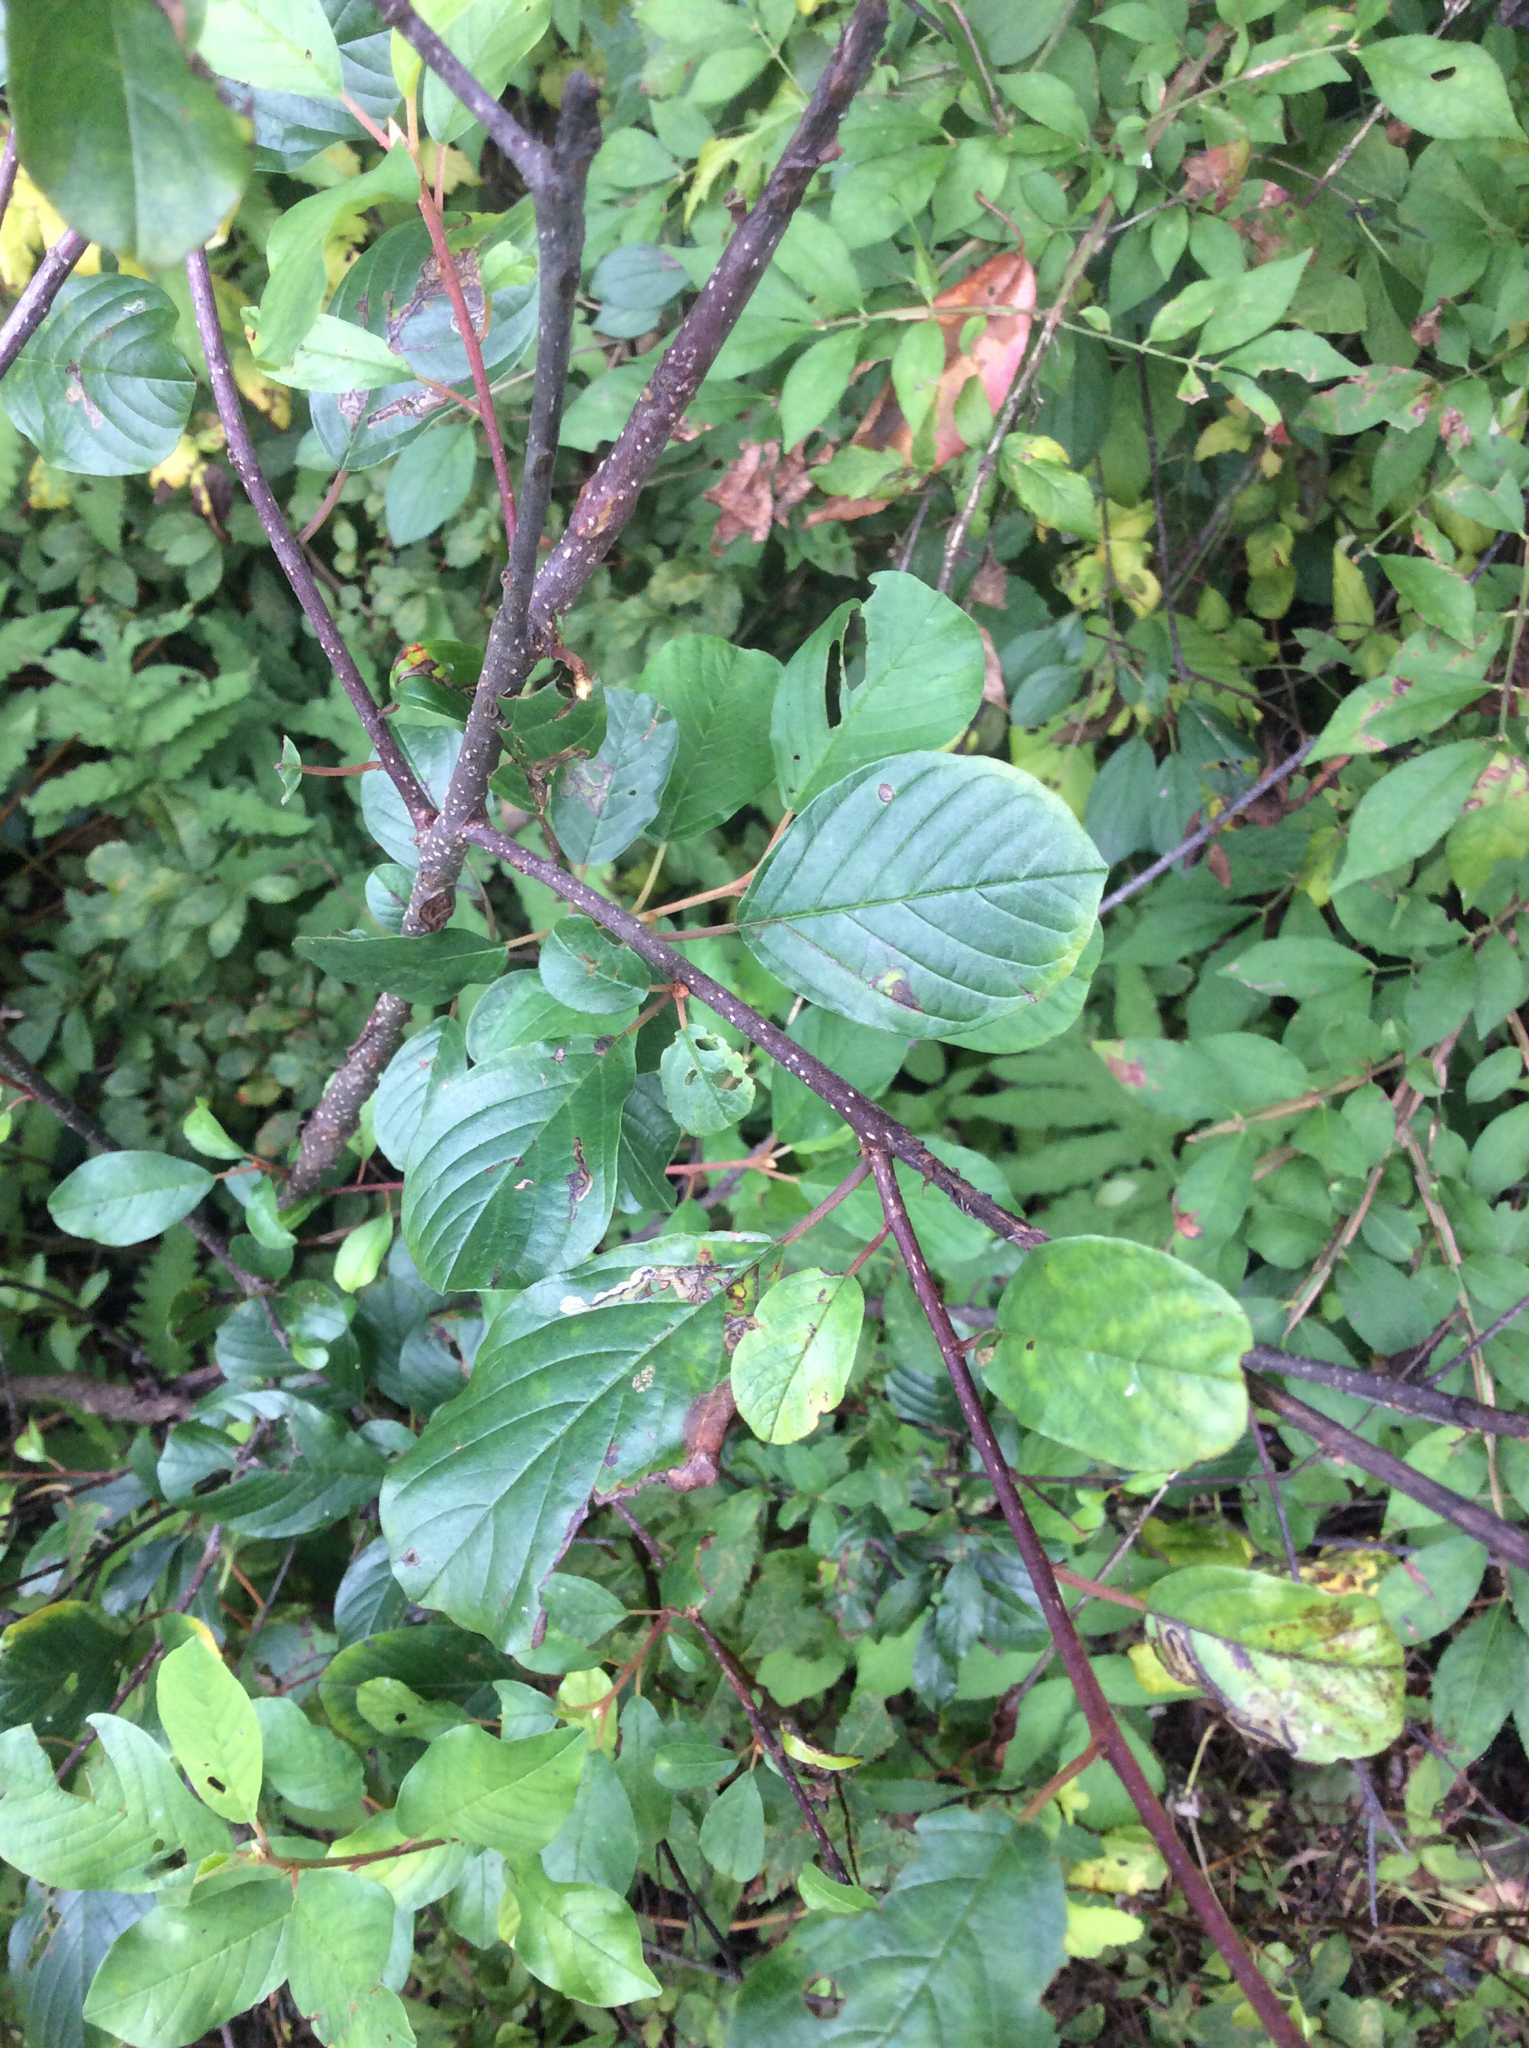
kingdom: Plantae
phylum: Tracheophyta
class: Magnoliopsida
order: Rosales
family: Rhamnaceae
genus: Frangula
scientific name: Frangula alnus
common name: Alder buckthorn
